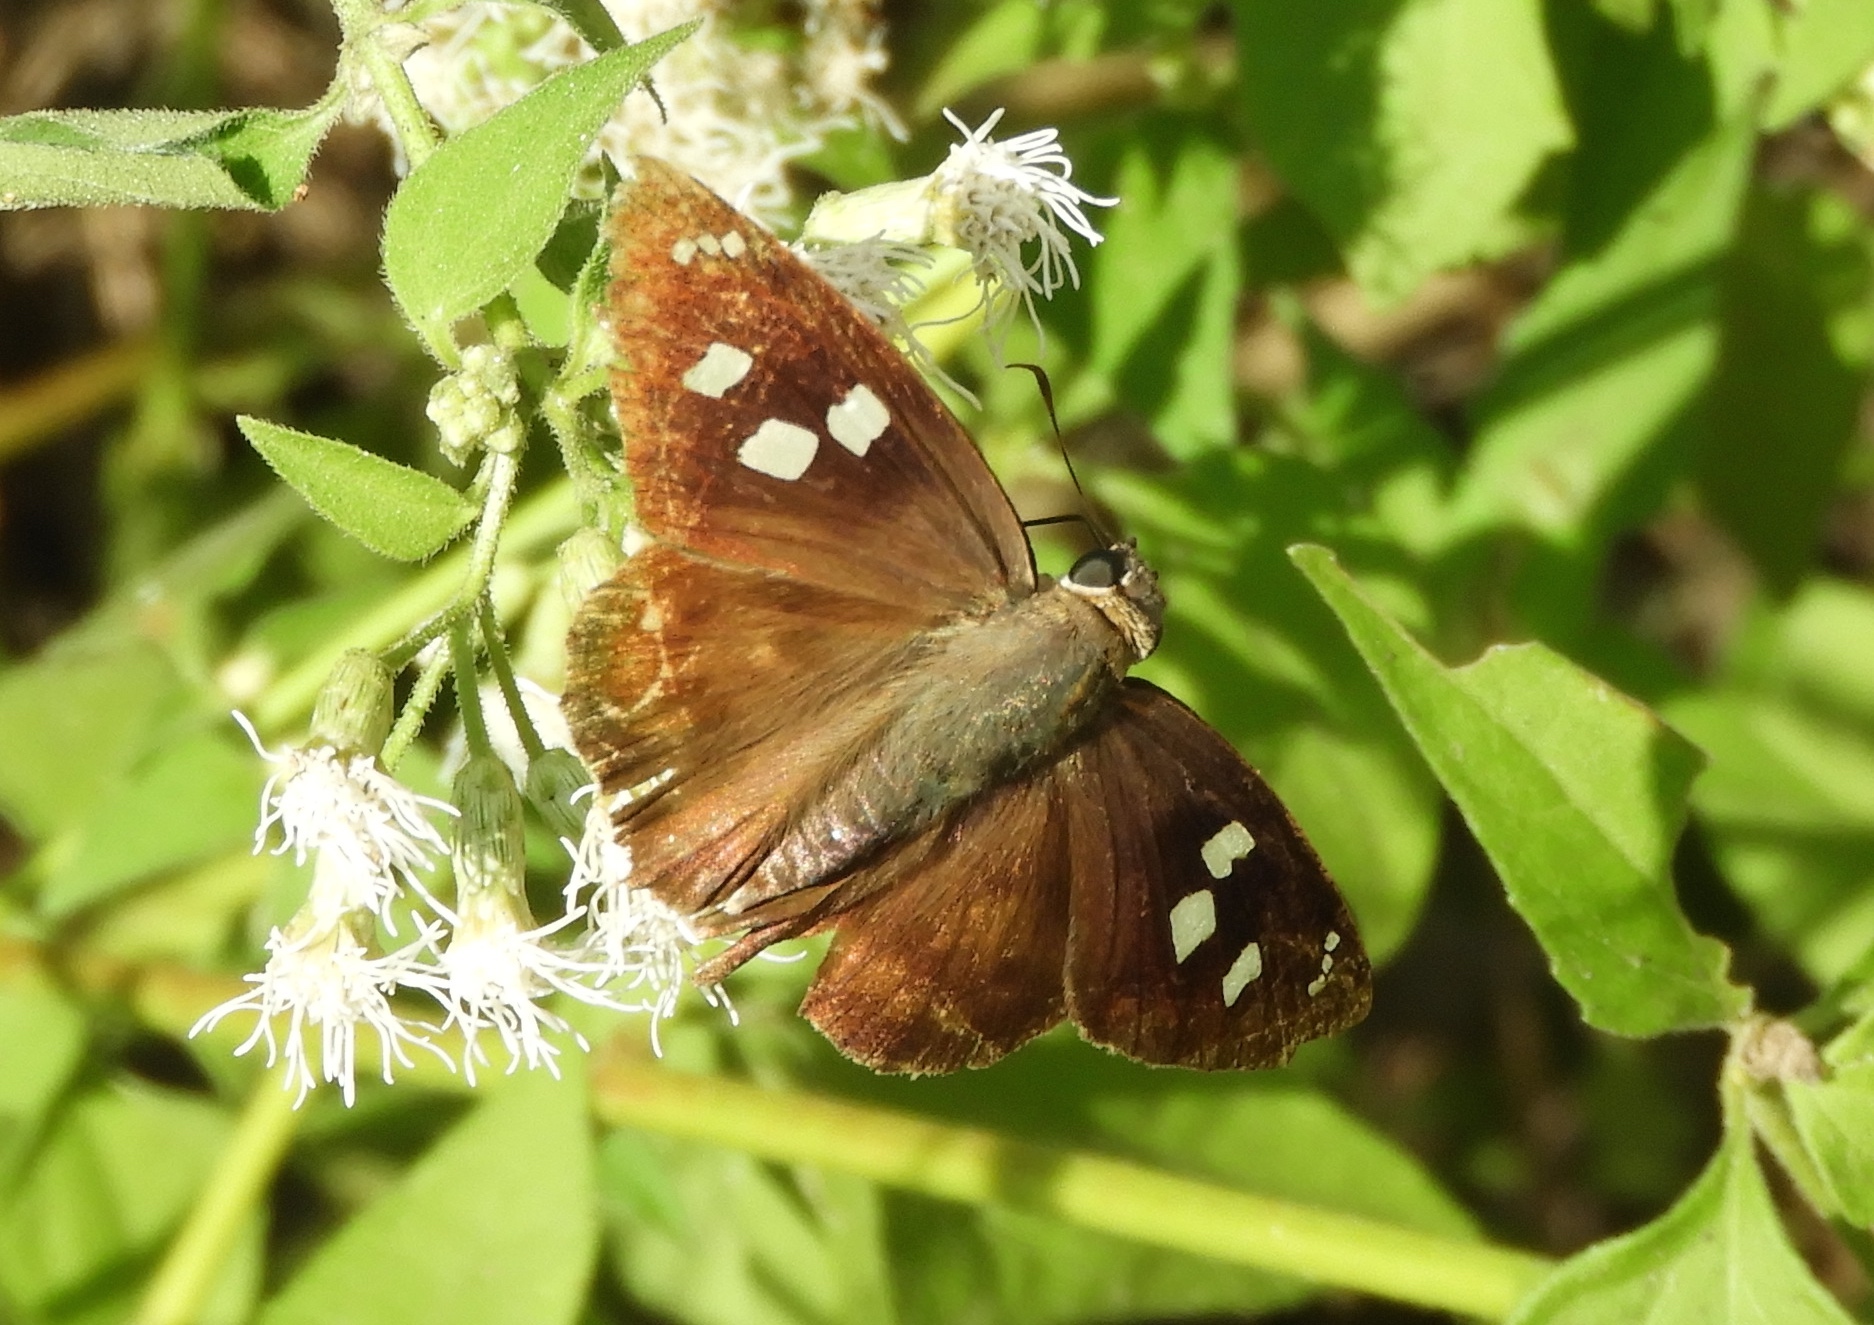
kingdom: Animalia
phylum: Arthropoda
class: Insecta
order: Lepidoptera
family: Hesperiidae
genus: Polygonus
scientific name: Polygonus leo
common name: Hammoch skipper
